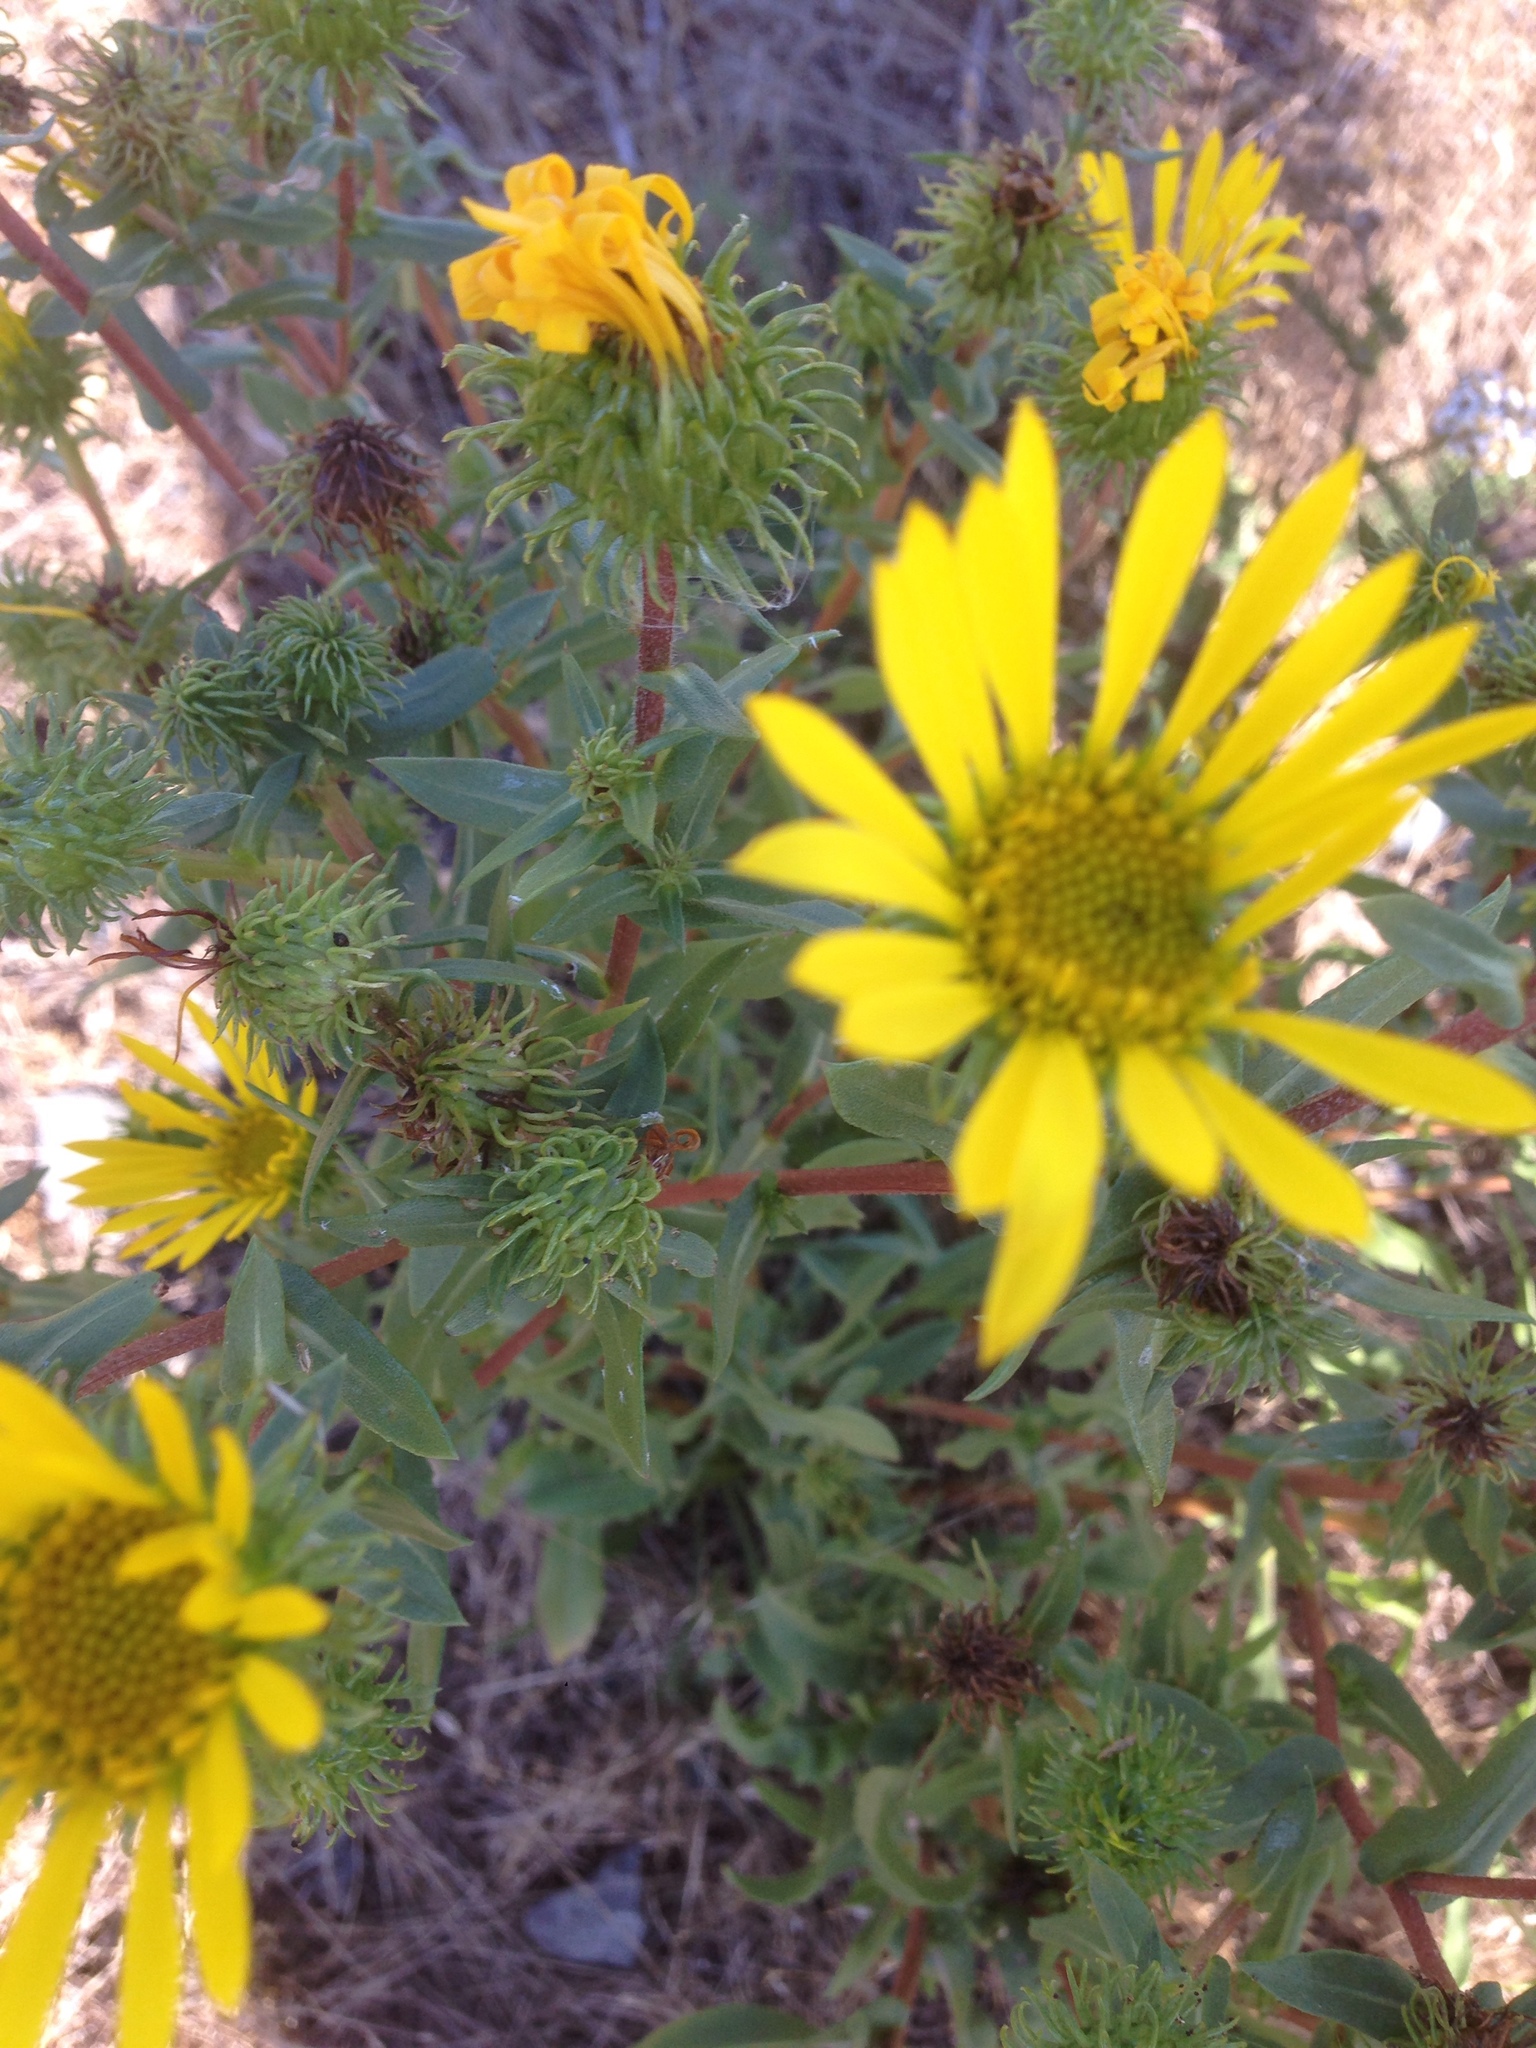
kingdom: Plantae
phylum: Tracheophyta
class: Magnoliopsida
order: Asterales
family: Asteraceae
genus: Grindelia
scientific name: Grindelia hirsutula
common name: Hairy gumweed
